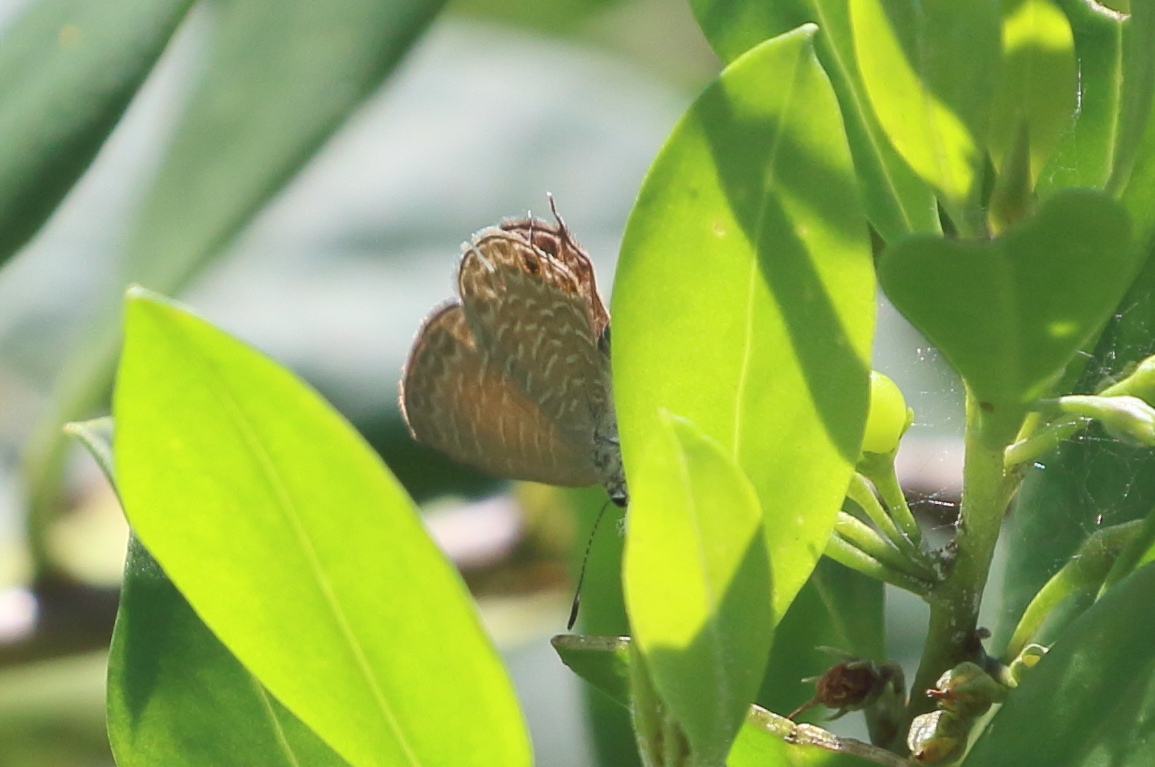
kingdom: Animalia
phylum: Arthropoda
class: Insecta
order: Lepidoptera
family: Lycaenidae
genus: Nacaduba
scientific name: Nacaduba berenice
